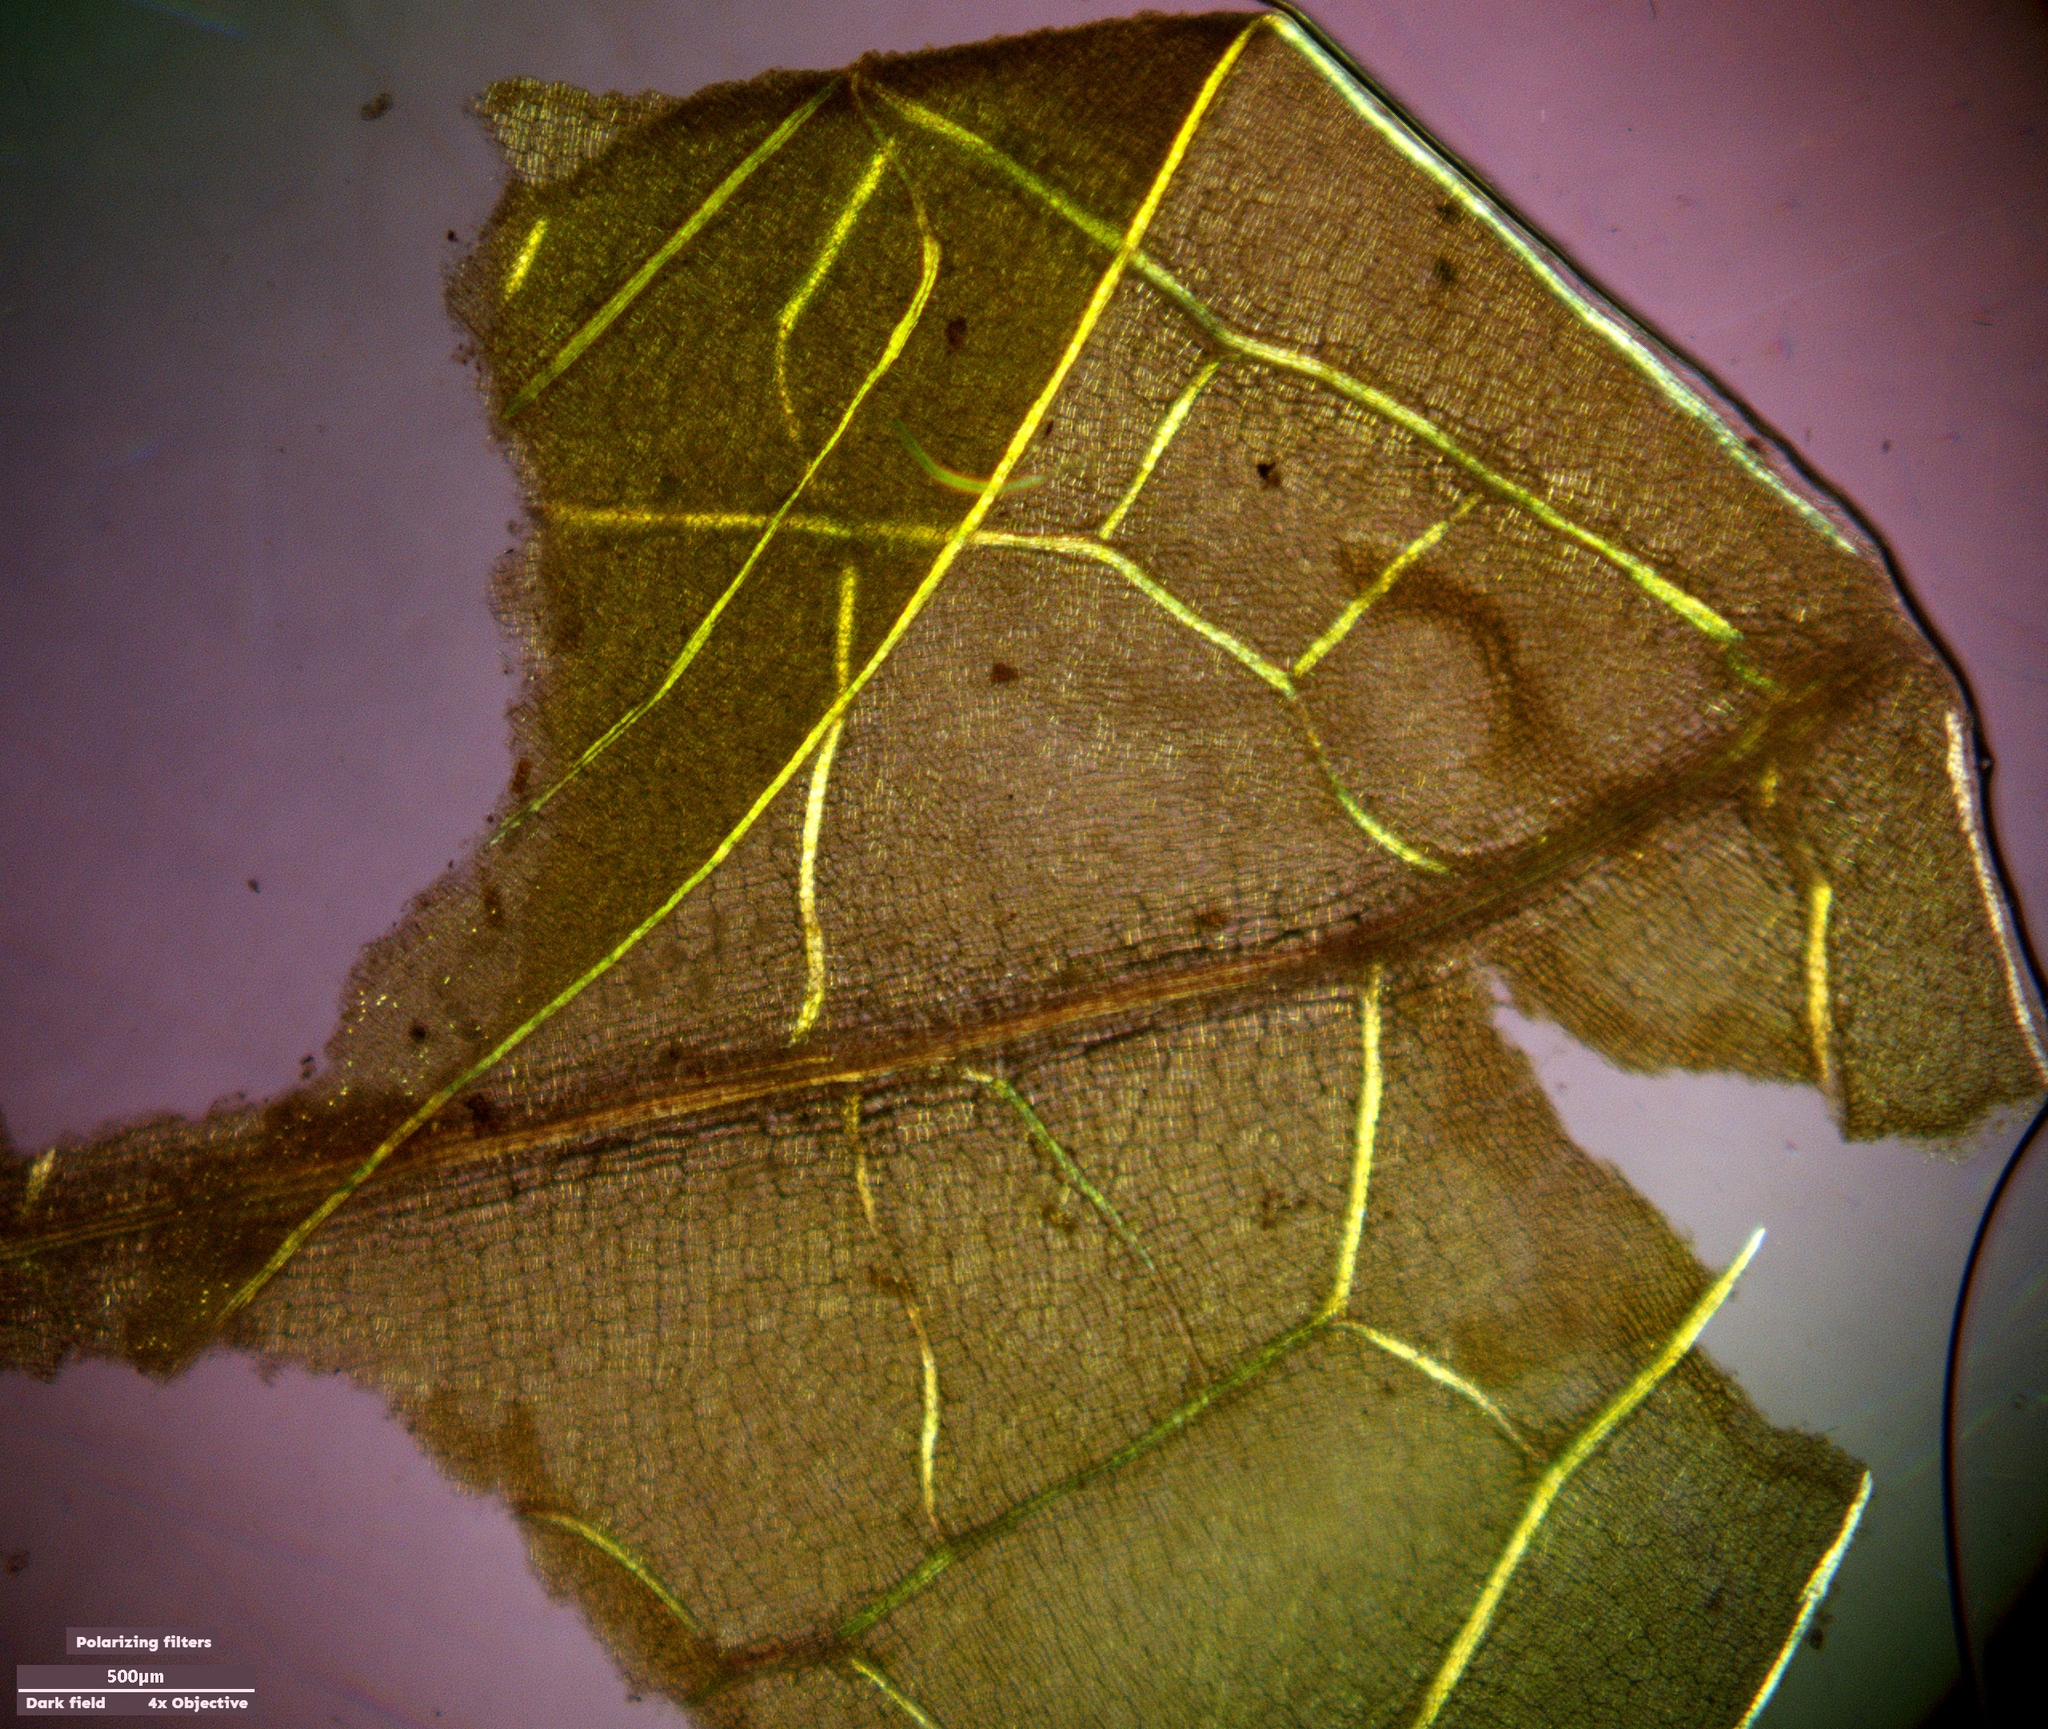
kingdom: Plantae
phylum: Tracheophyta
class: Liliopsida
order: Alismatales
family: Potamogetonaceae
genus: Potamogeton
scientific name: Potamogeton perfoliatus
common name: Perfoliate pondweed
